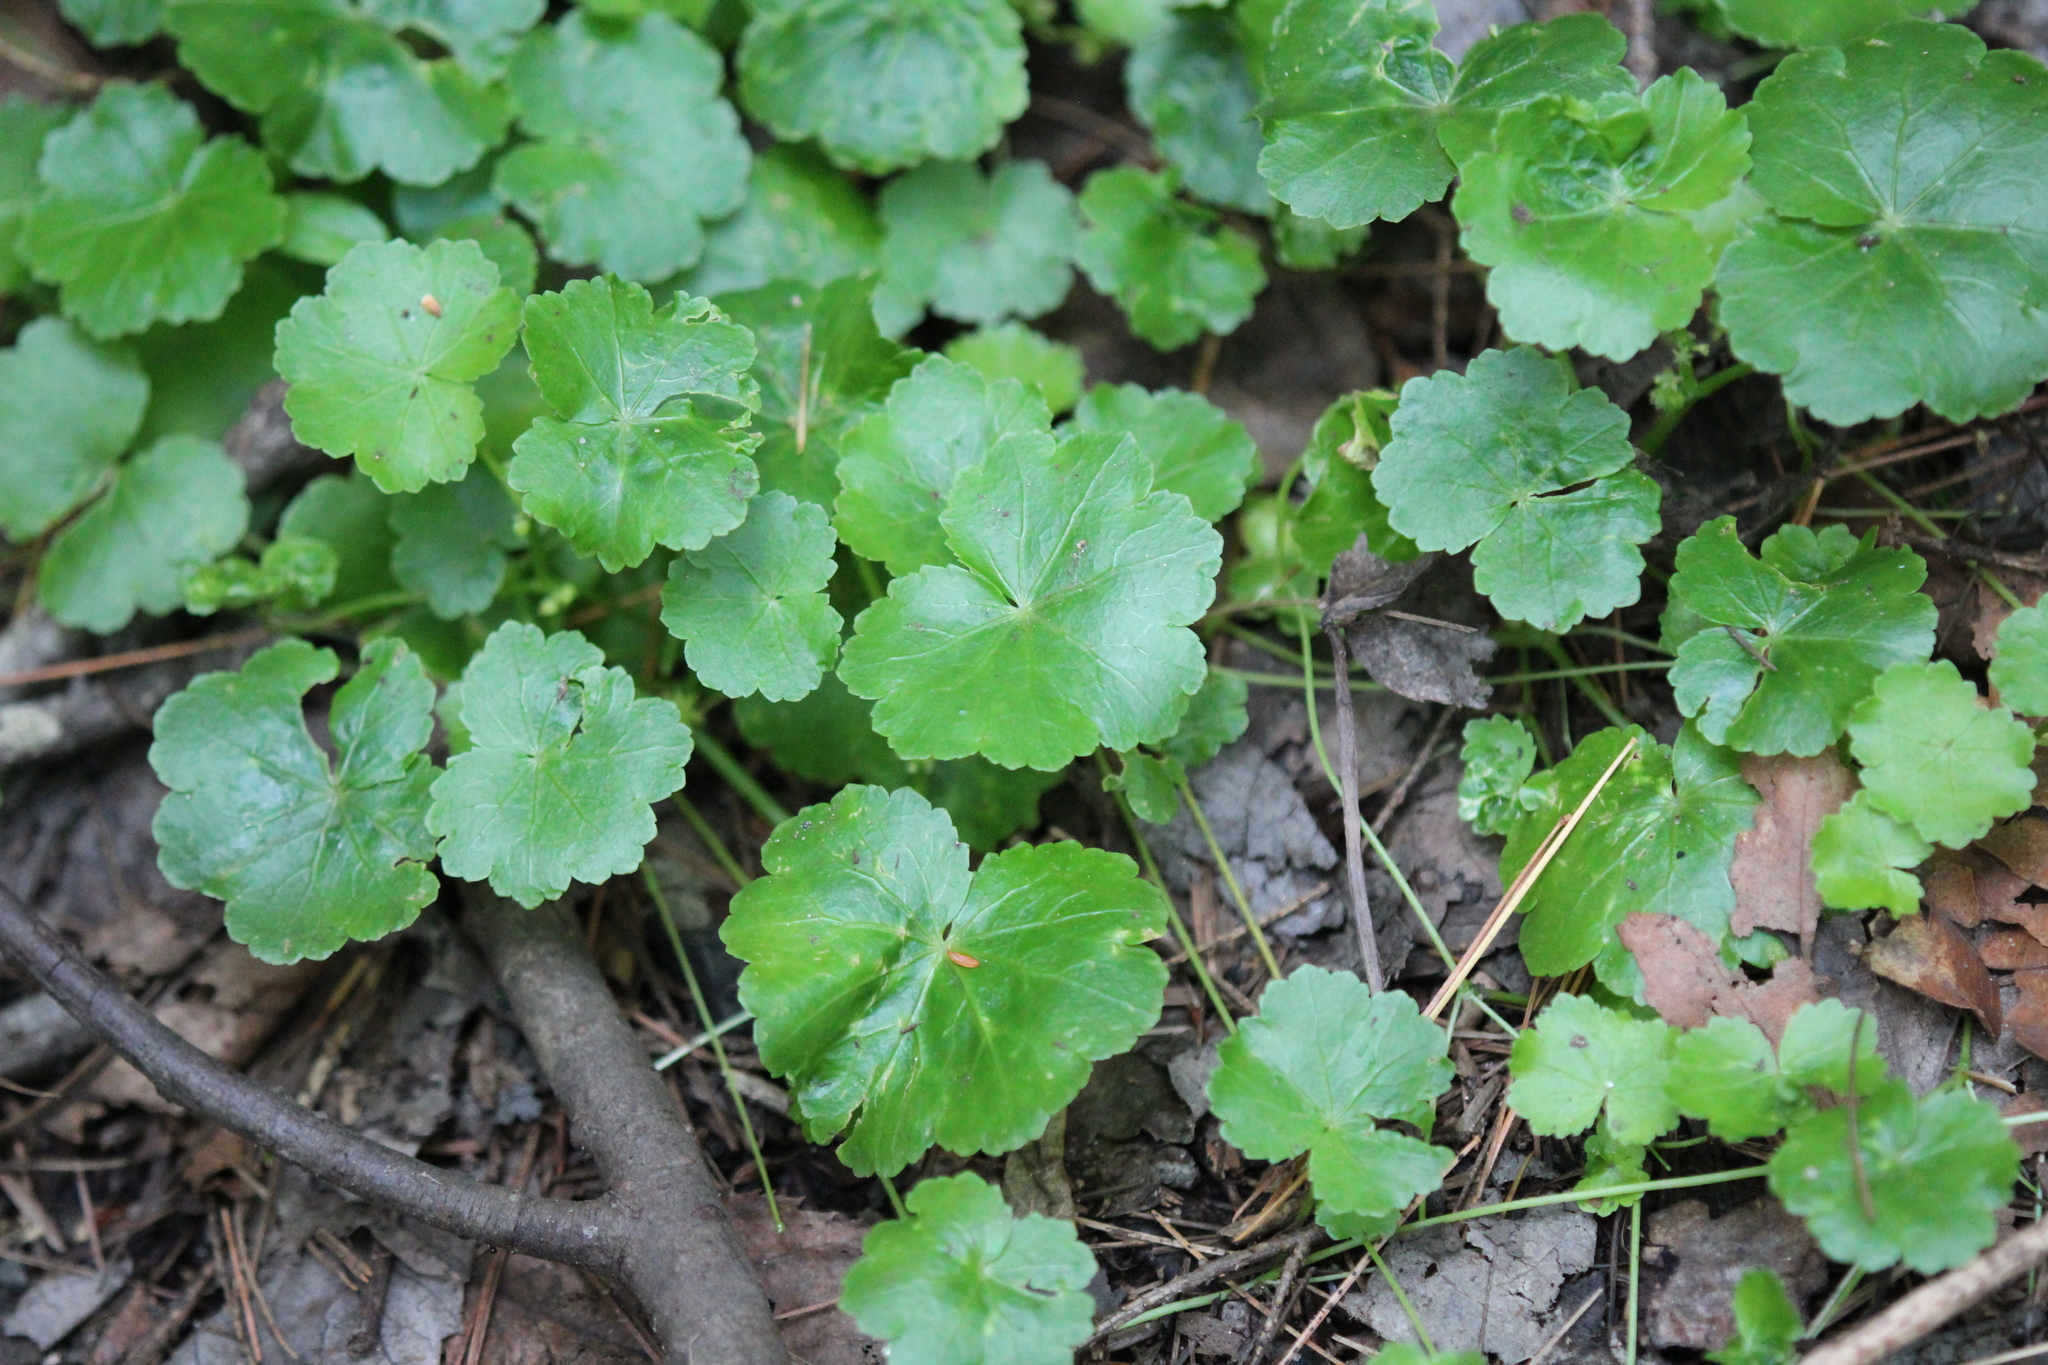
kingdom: Plantae
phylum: Tracheophyta
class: Magnoliopsida
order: Apiales
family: Araliaceae
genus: Hydrocotyle
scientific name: Hydrocotyle americana
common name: American water-pennywort
